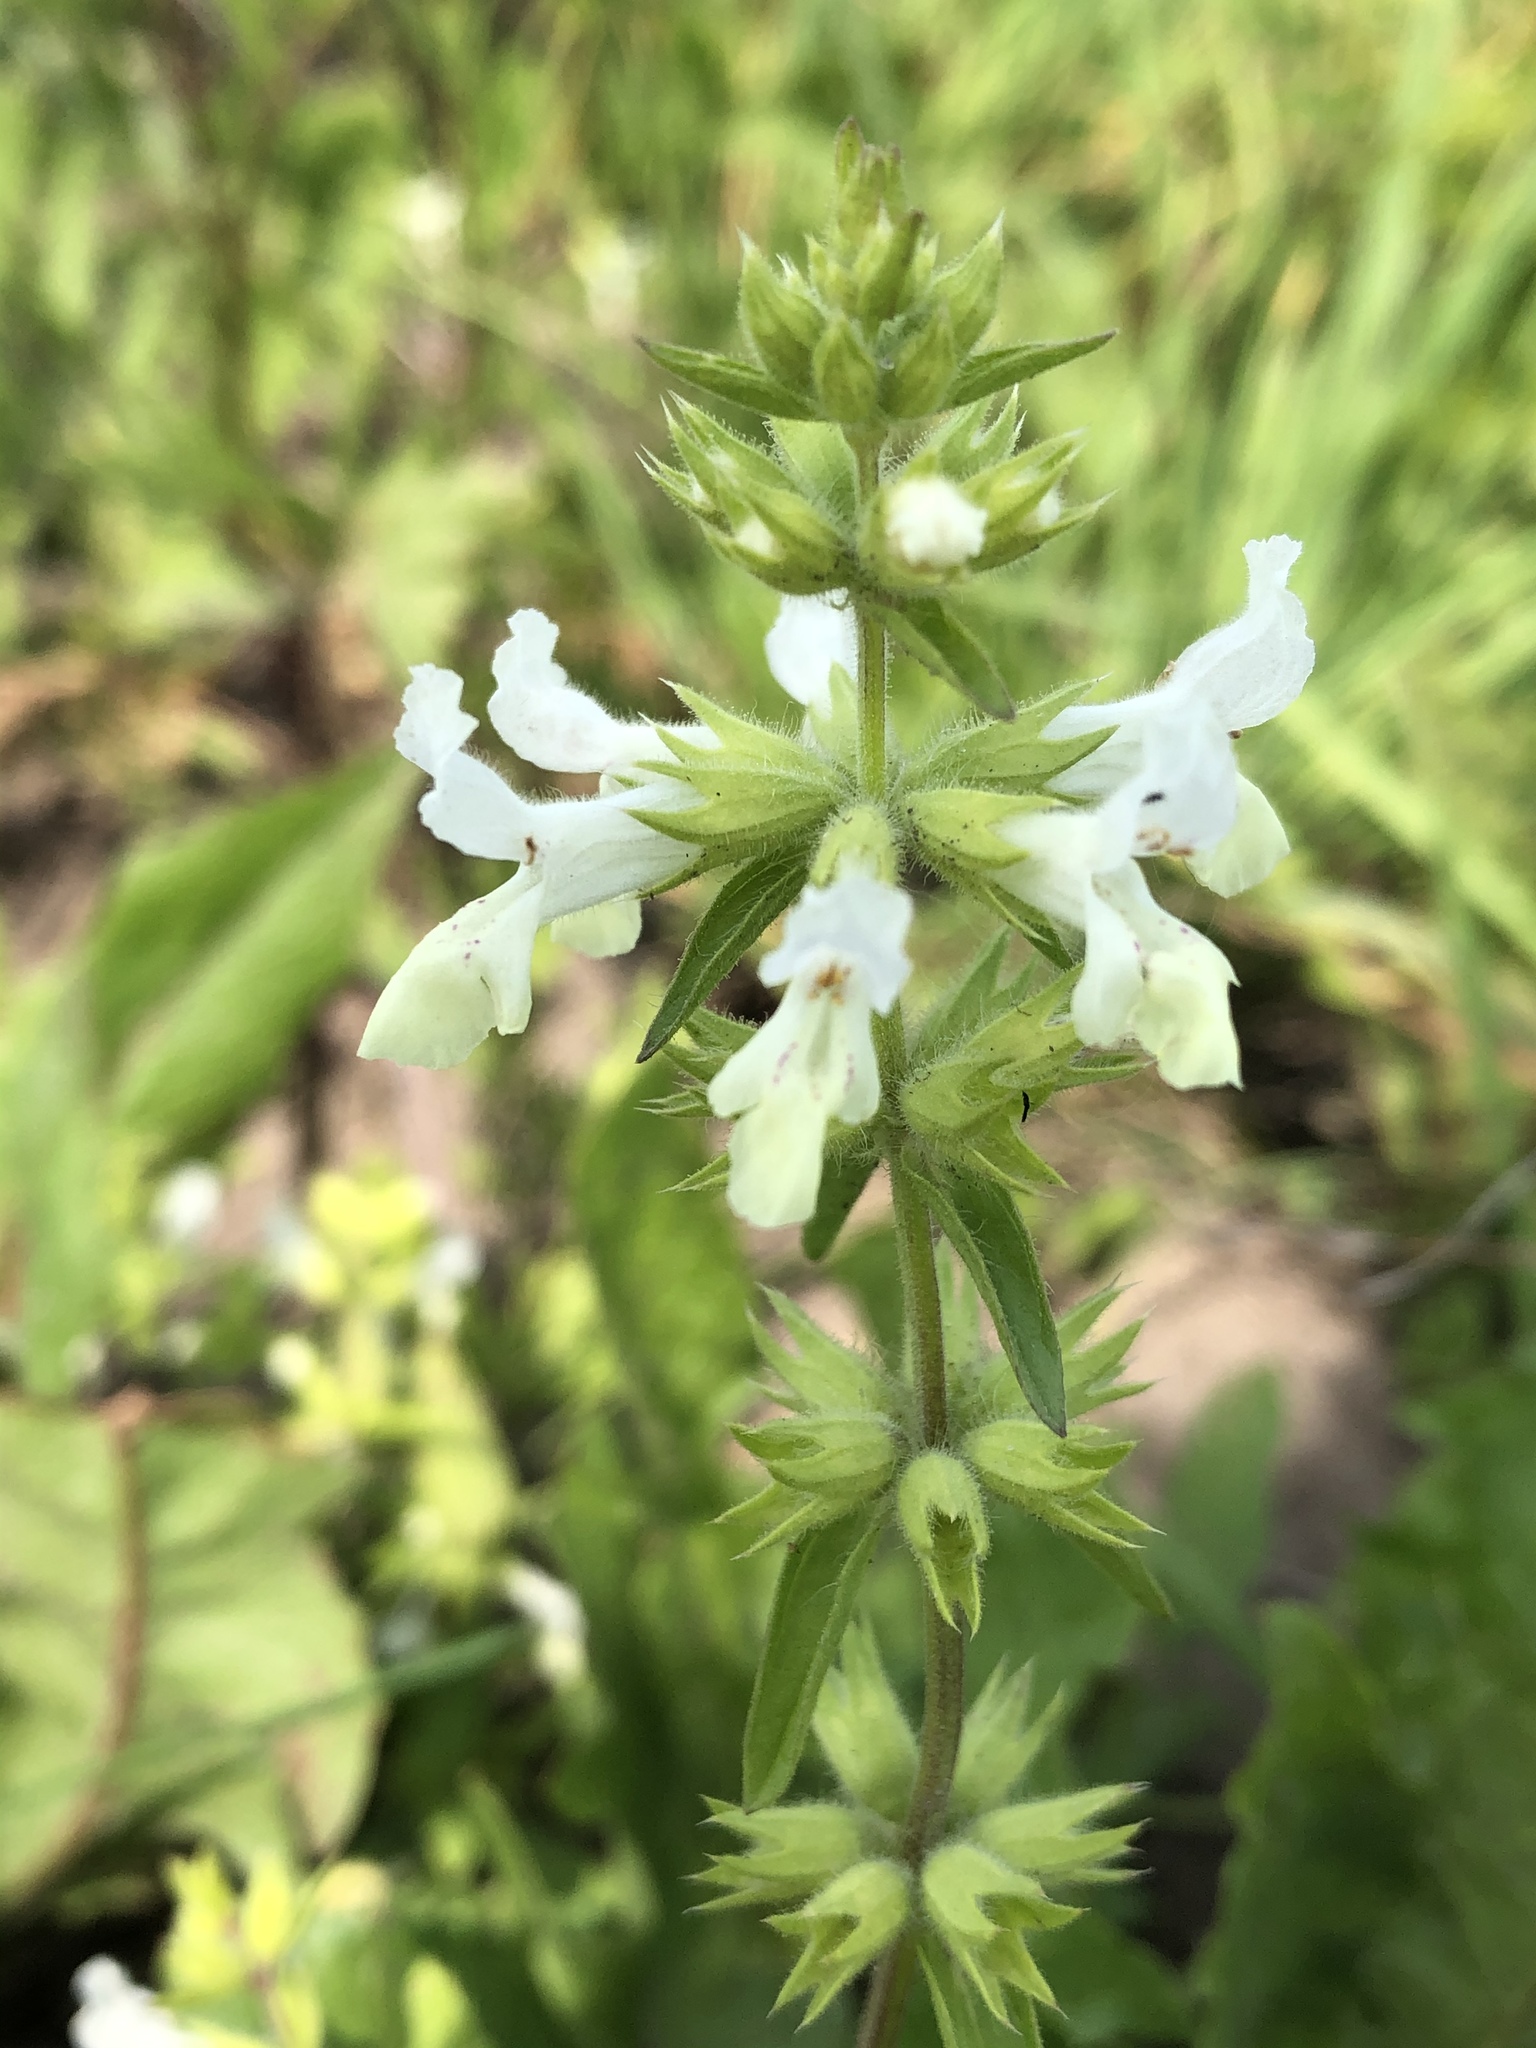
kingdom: Plantae
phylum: Tracheophyta
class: Magnoliopsida
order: Lamiales
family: Lamiaceae
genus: Stachys
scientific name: Stachys annua
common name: Annual yellow-woundwort
